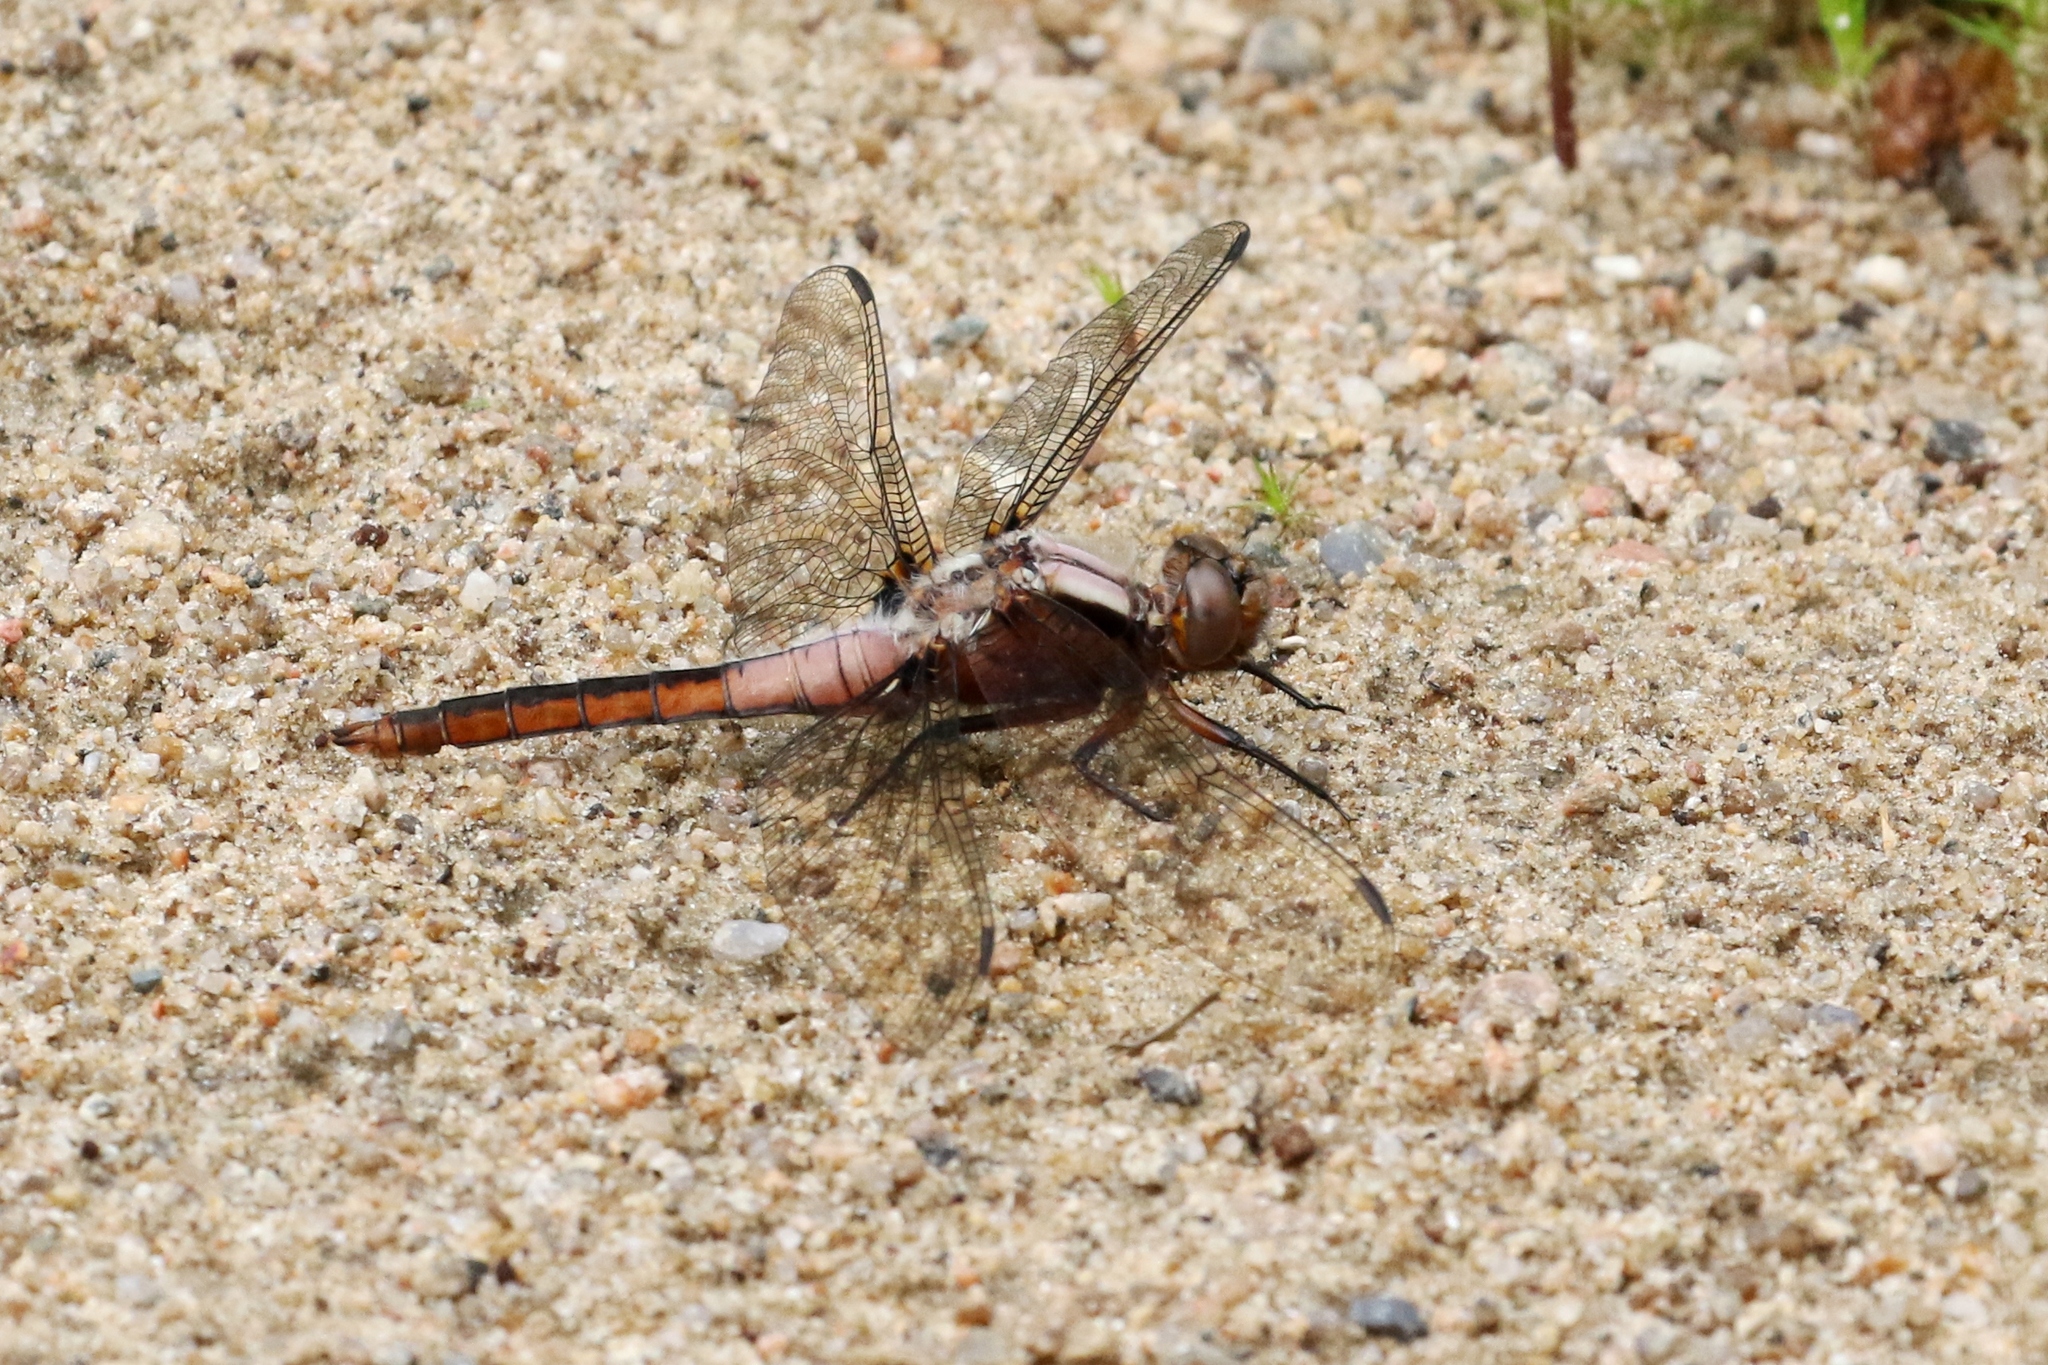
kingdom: Animalia
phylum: Arthropoda
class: Insecta
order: Odonata
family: Libellulidae
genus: Ladona
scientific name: Ladona julia
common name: Chalk-fronted corporal
